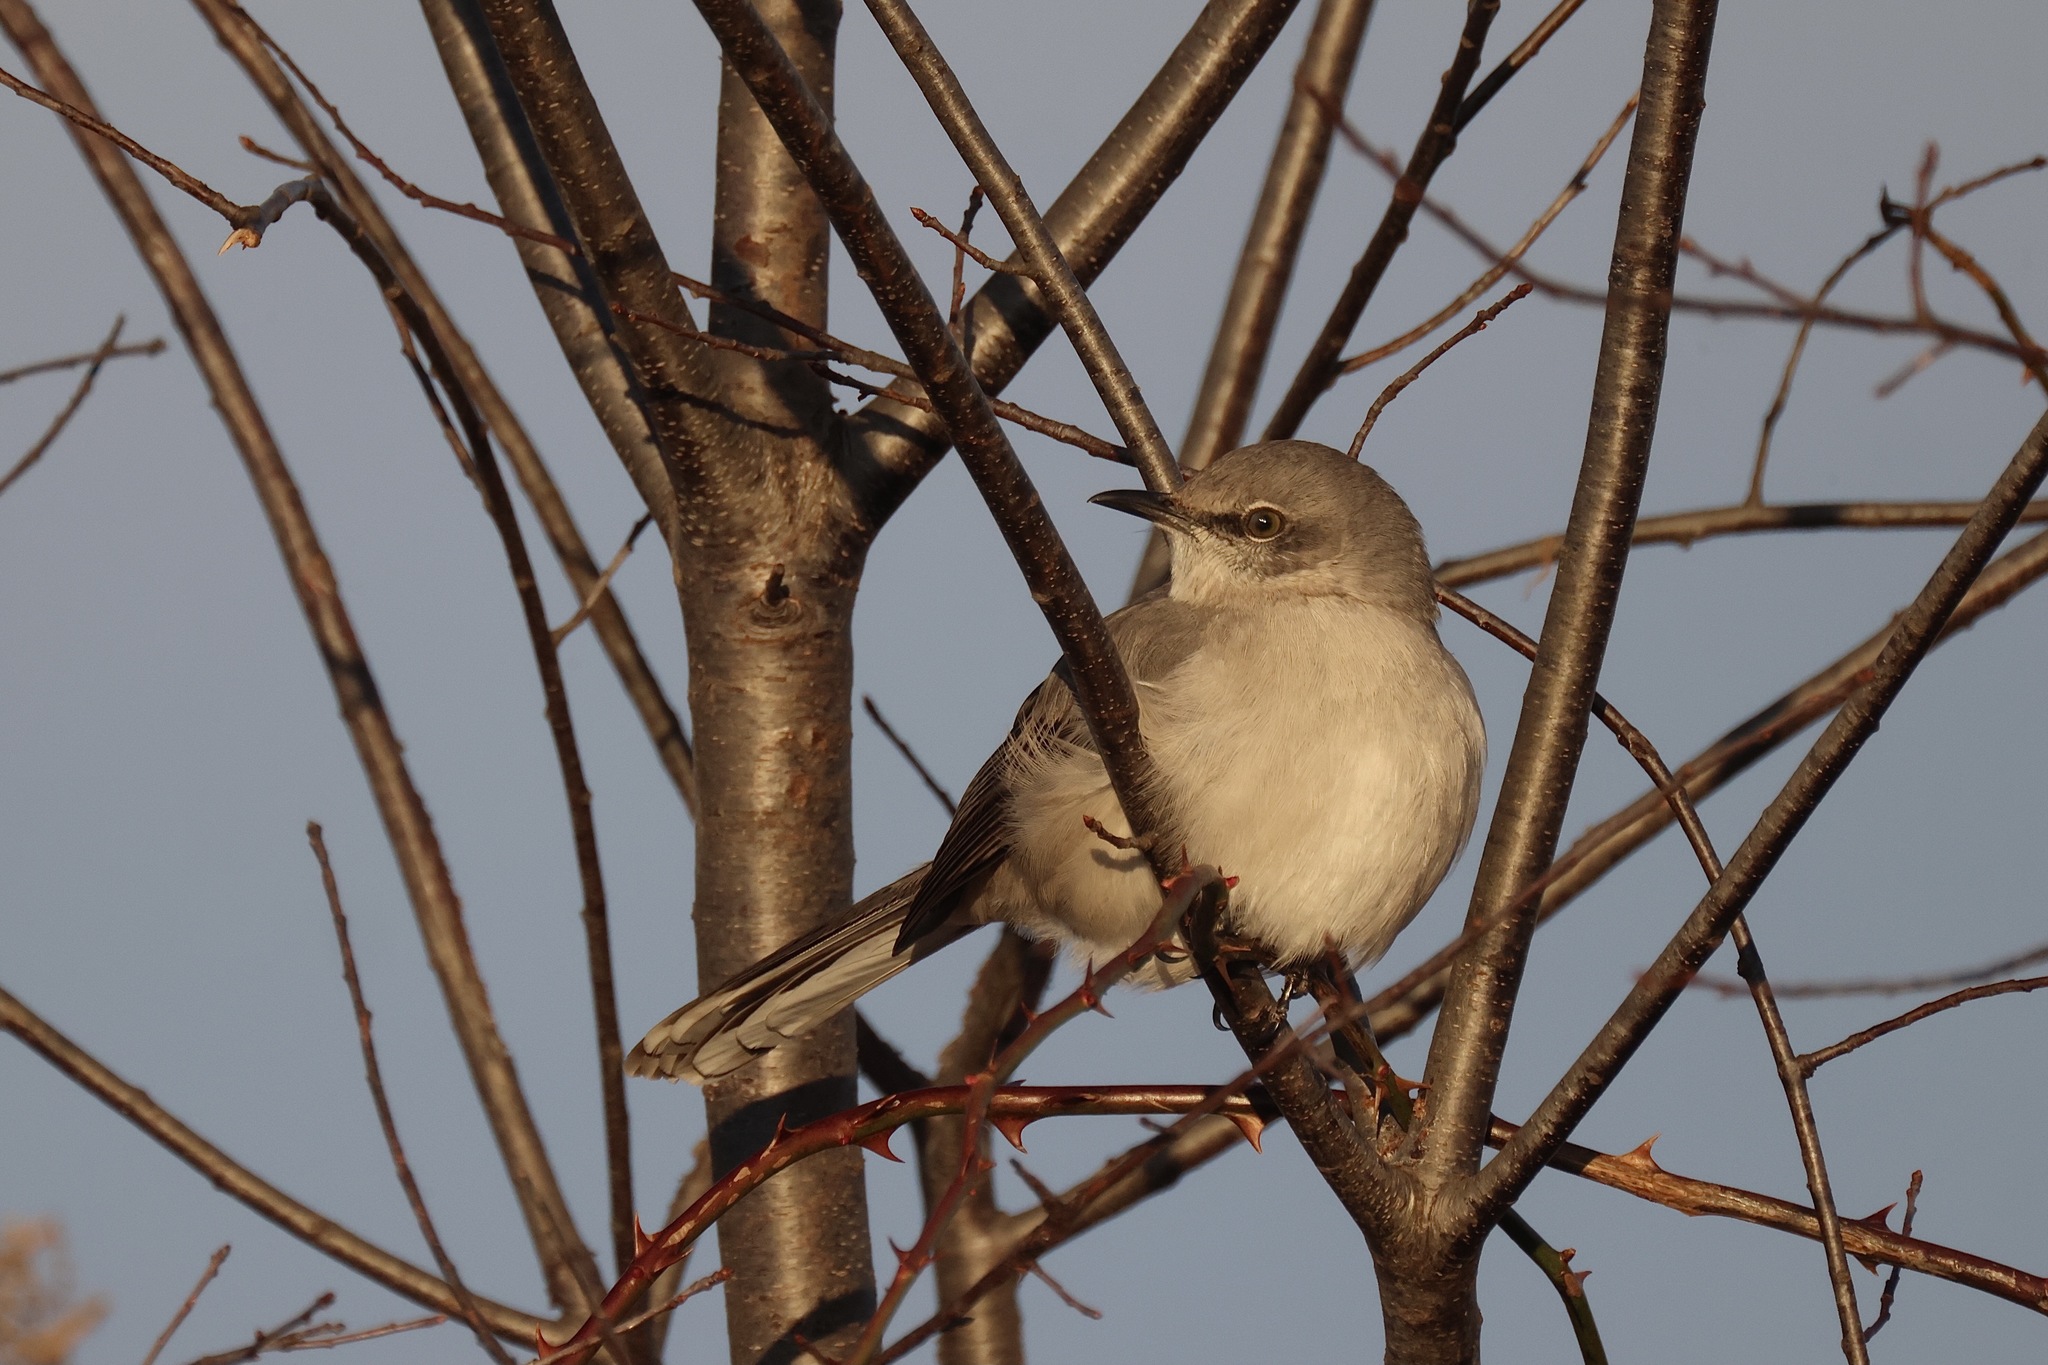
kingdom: Animalia
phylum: Chordata
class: Aves
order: Passeriformes
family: Mimidae
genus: Mimus
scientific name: Mimus polyglottos
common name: Northern mockingbird
